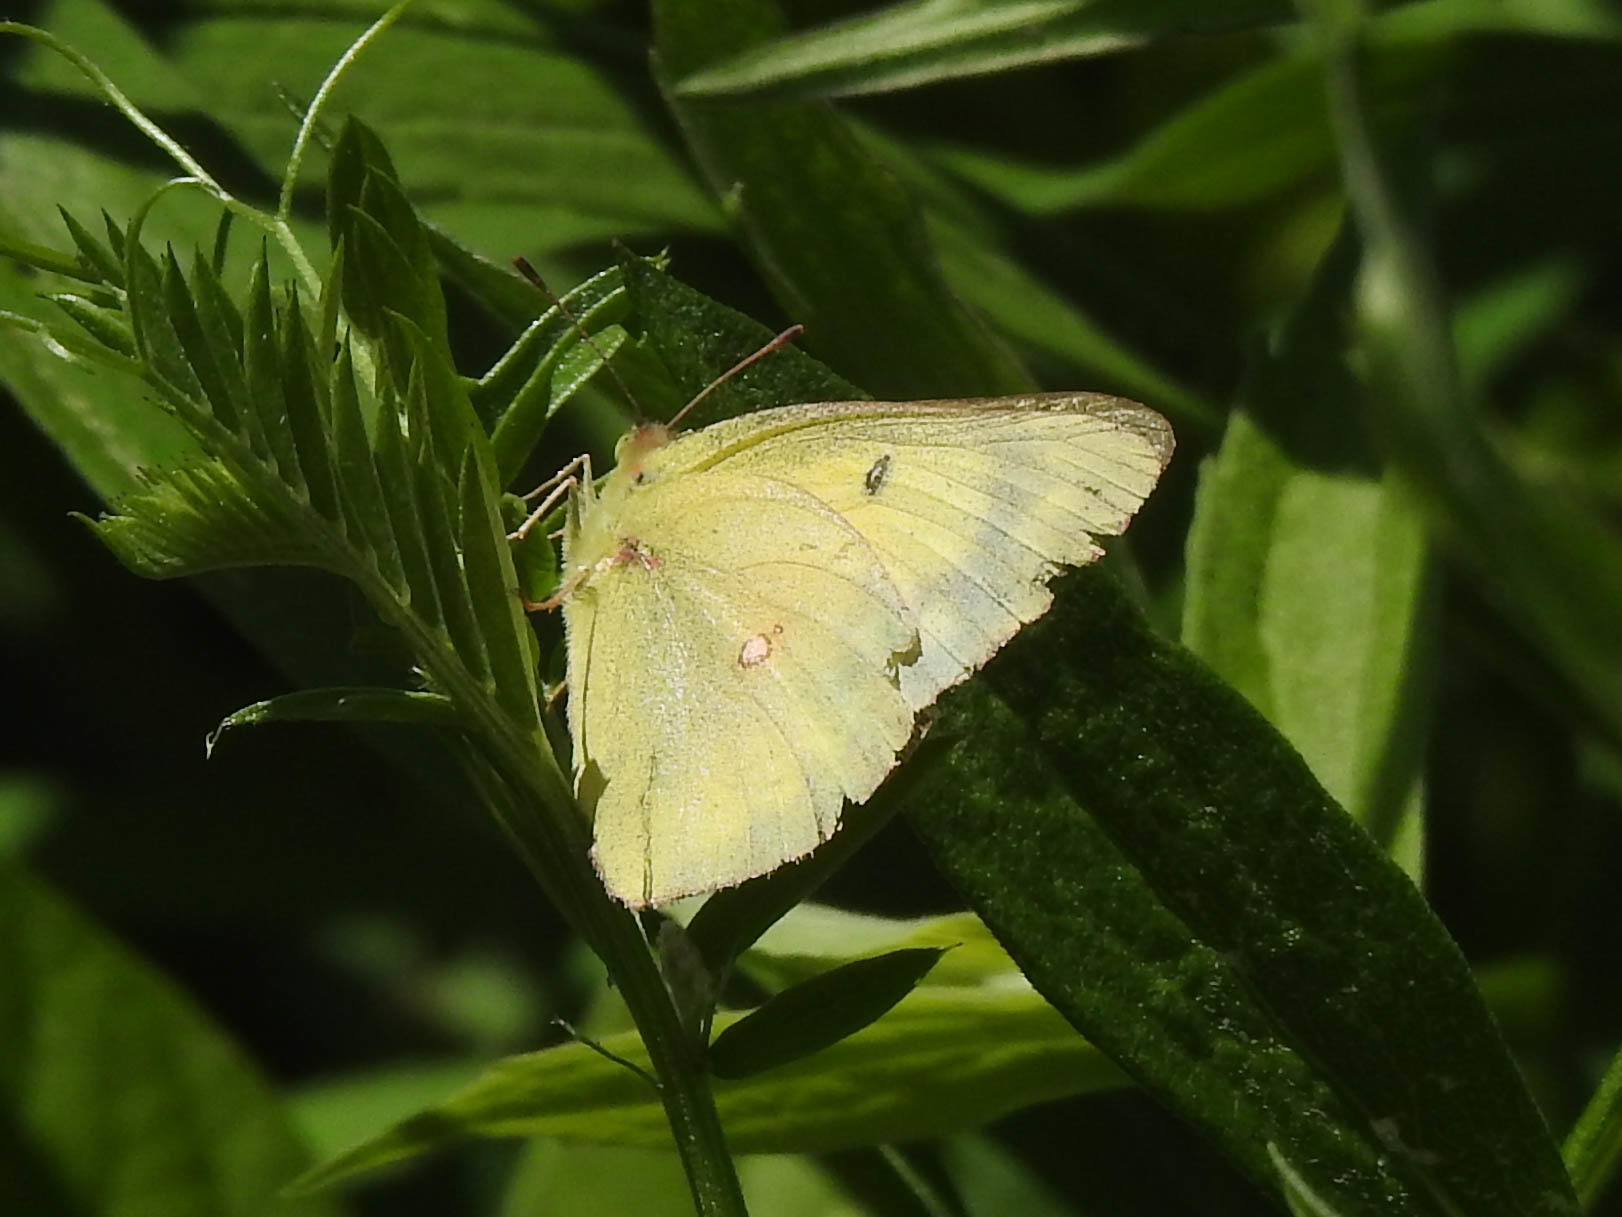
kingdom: Animalia
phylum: Arthropoda
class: Insecta
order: Lepidoptera
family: Pieridae
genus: Colias
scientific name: Colias philodice
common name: Clouded sulphur
